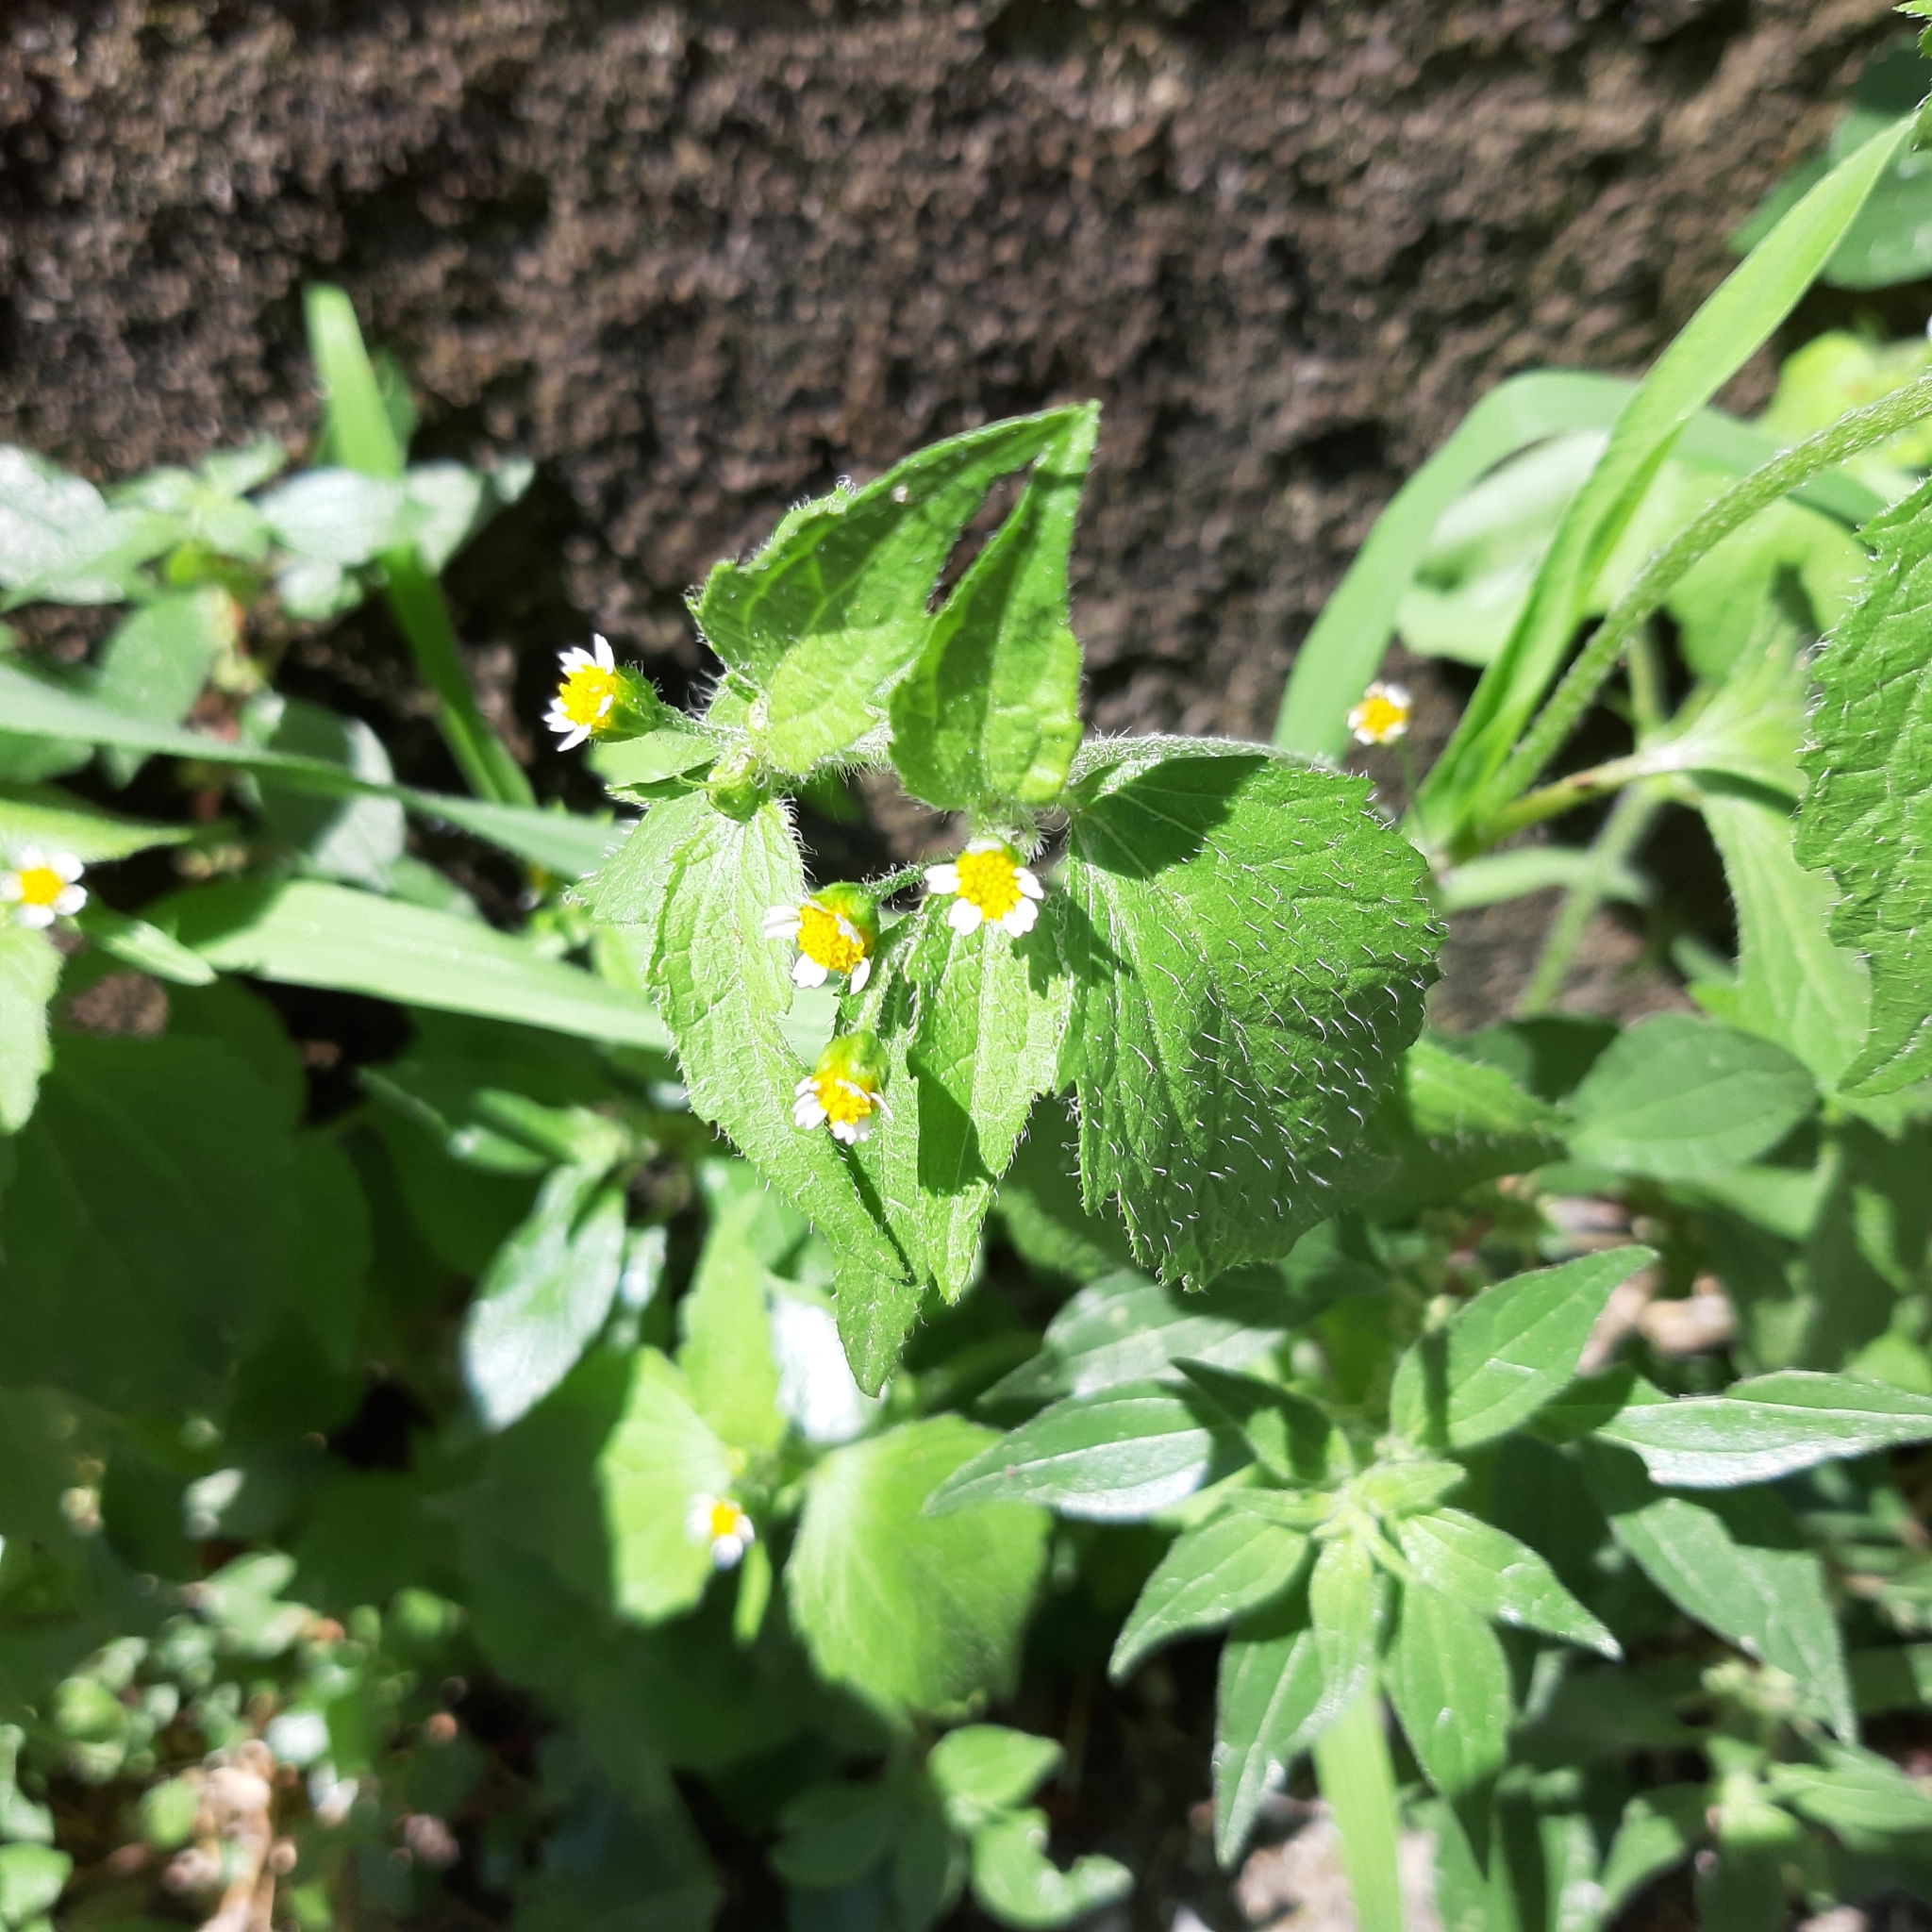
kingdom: Plantae
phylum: Tracheophyta
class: Magnoliopsida
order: Asterales
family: Asteraceae
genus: Galinsoga
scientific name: Galinsoga quadriradiata
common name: Shaggy soldier
